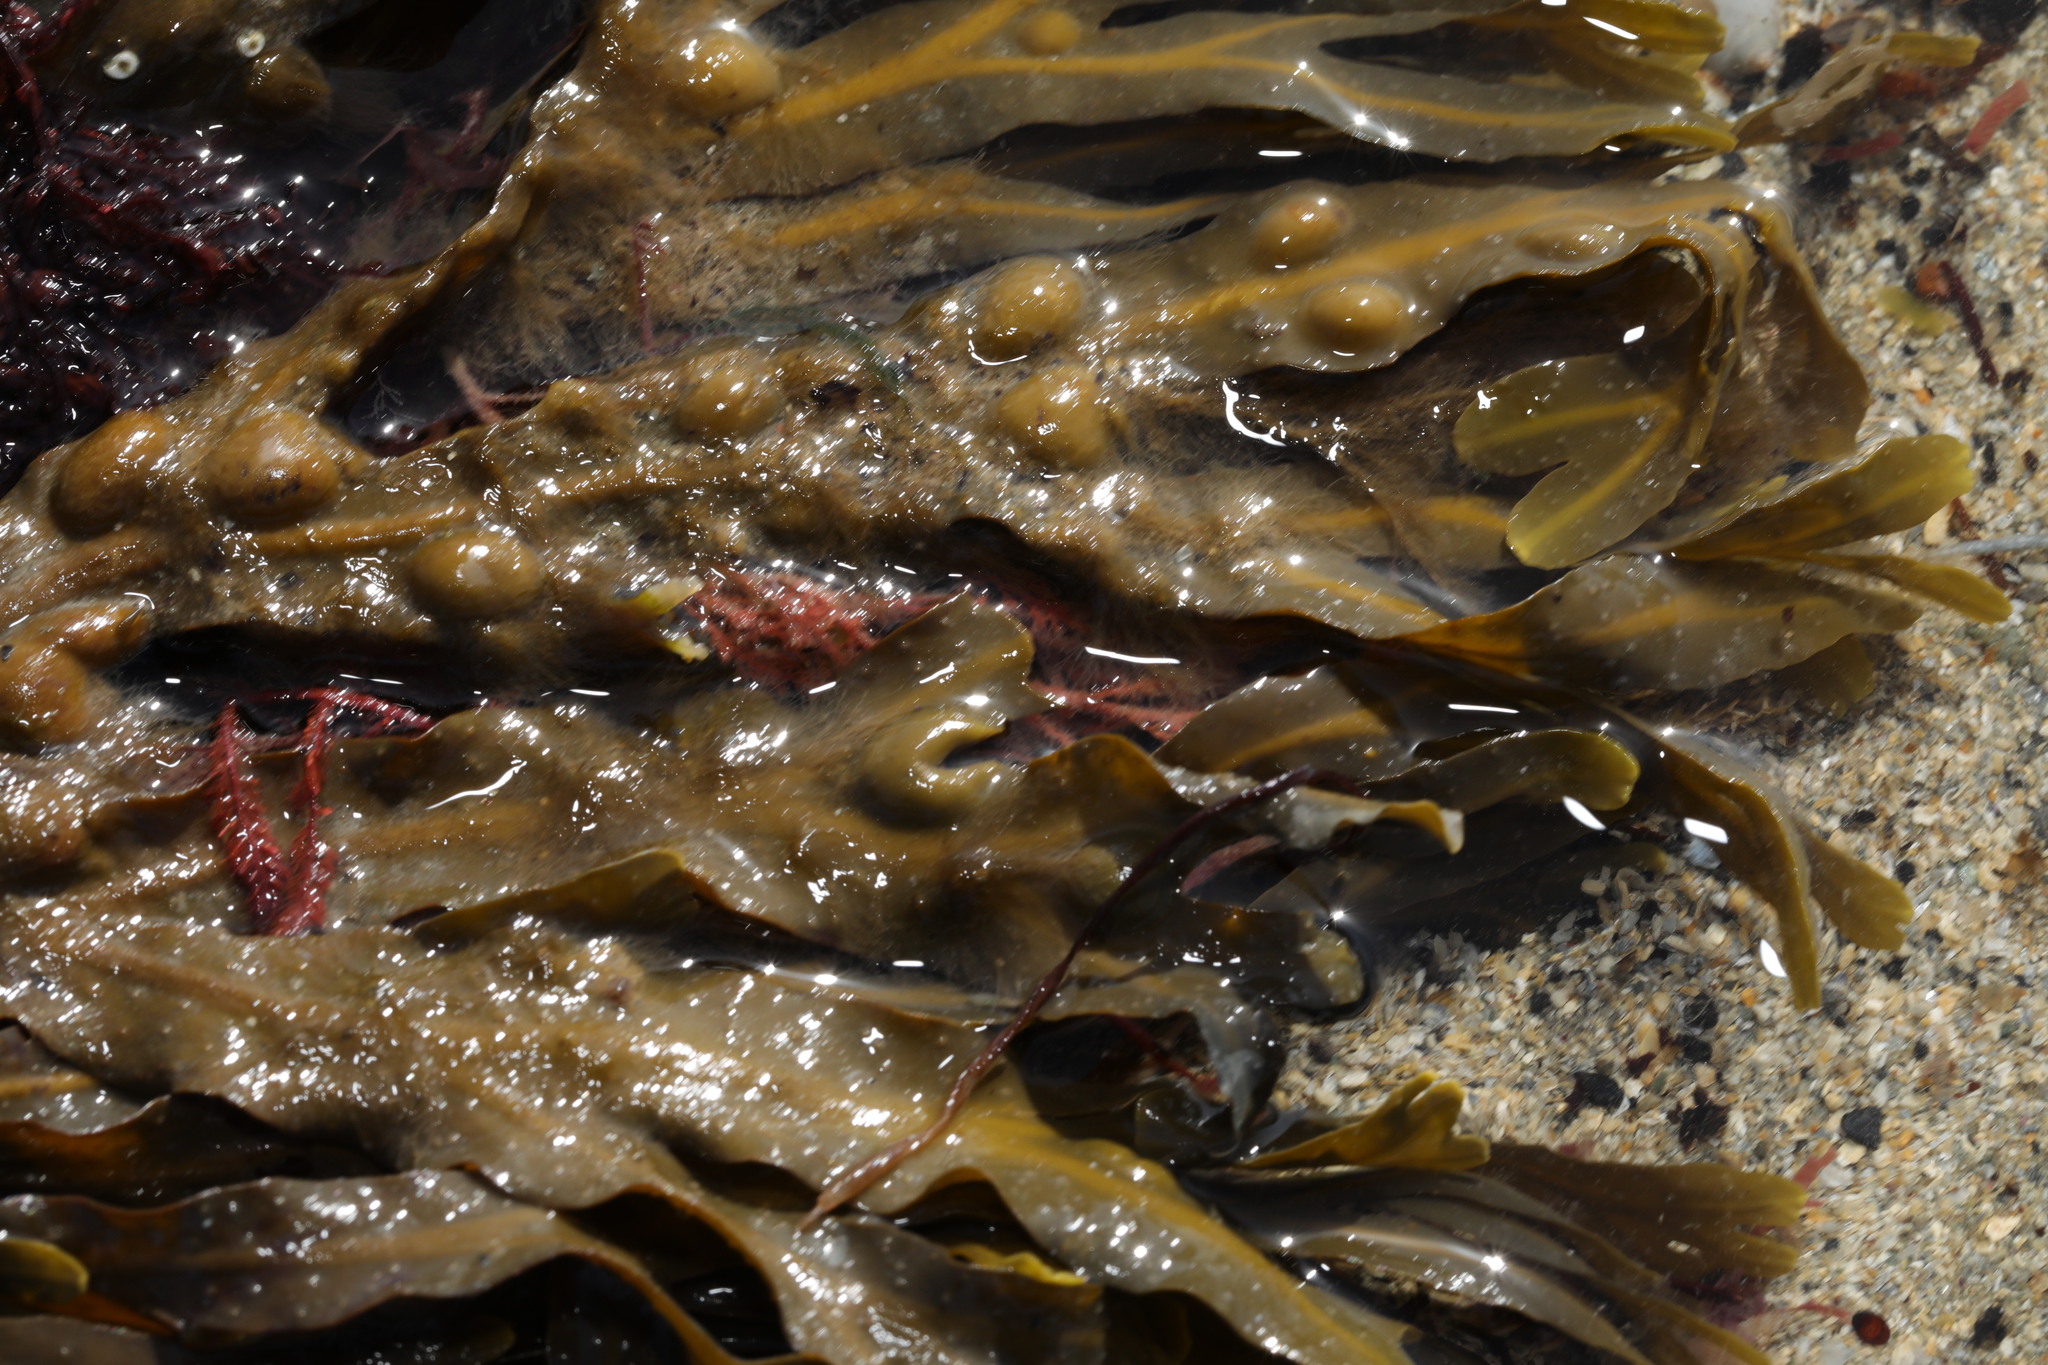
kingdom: Chromista
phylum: Ochrophyta
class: Phaeophyceae
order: Fucales
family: Fucaceae
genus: Fucus
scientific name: Fucus vesiculosus
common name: Bladder wrack
